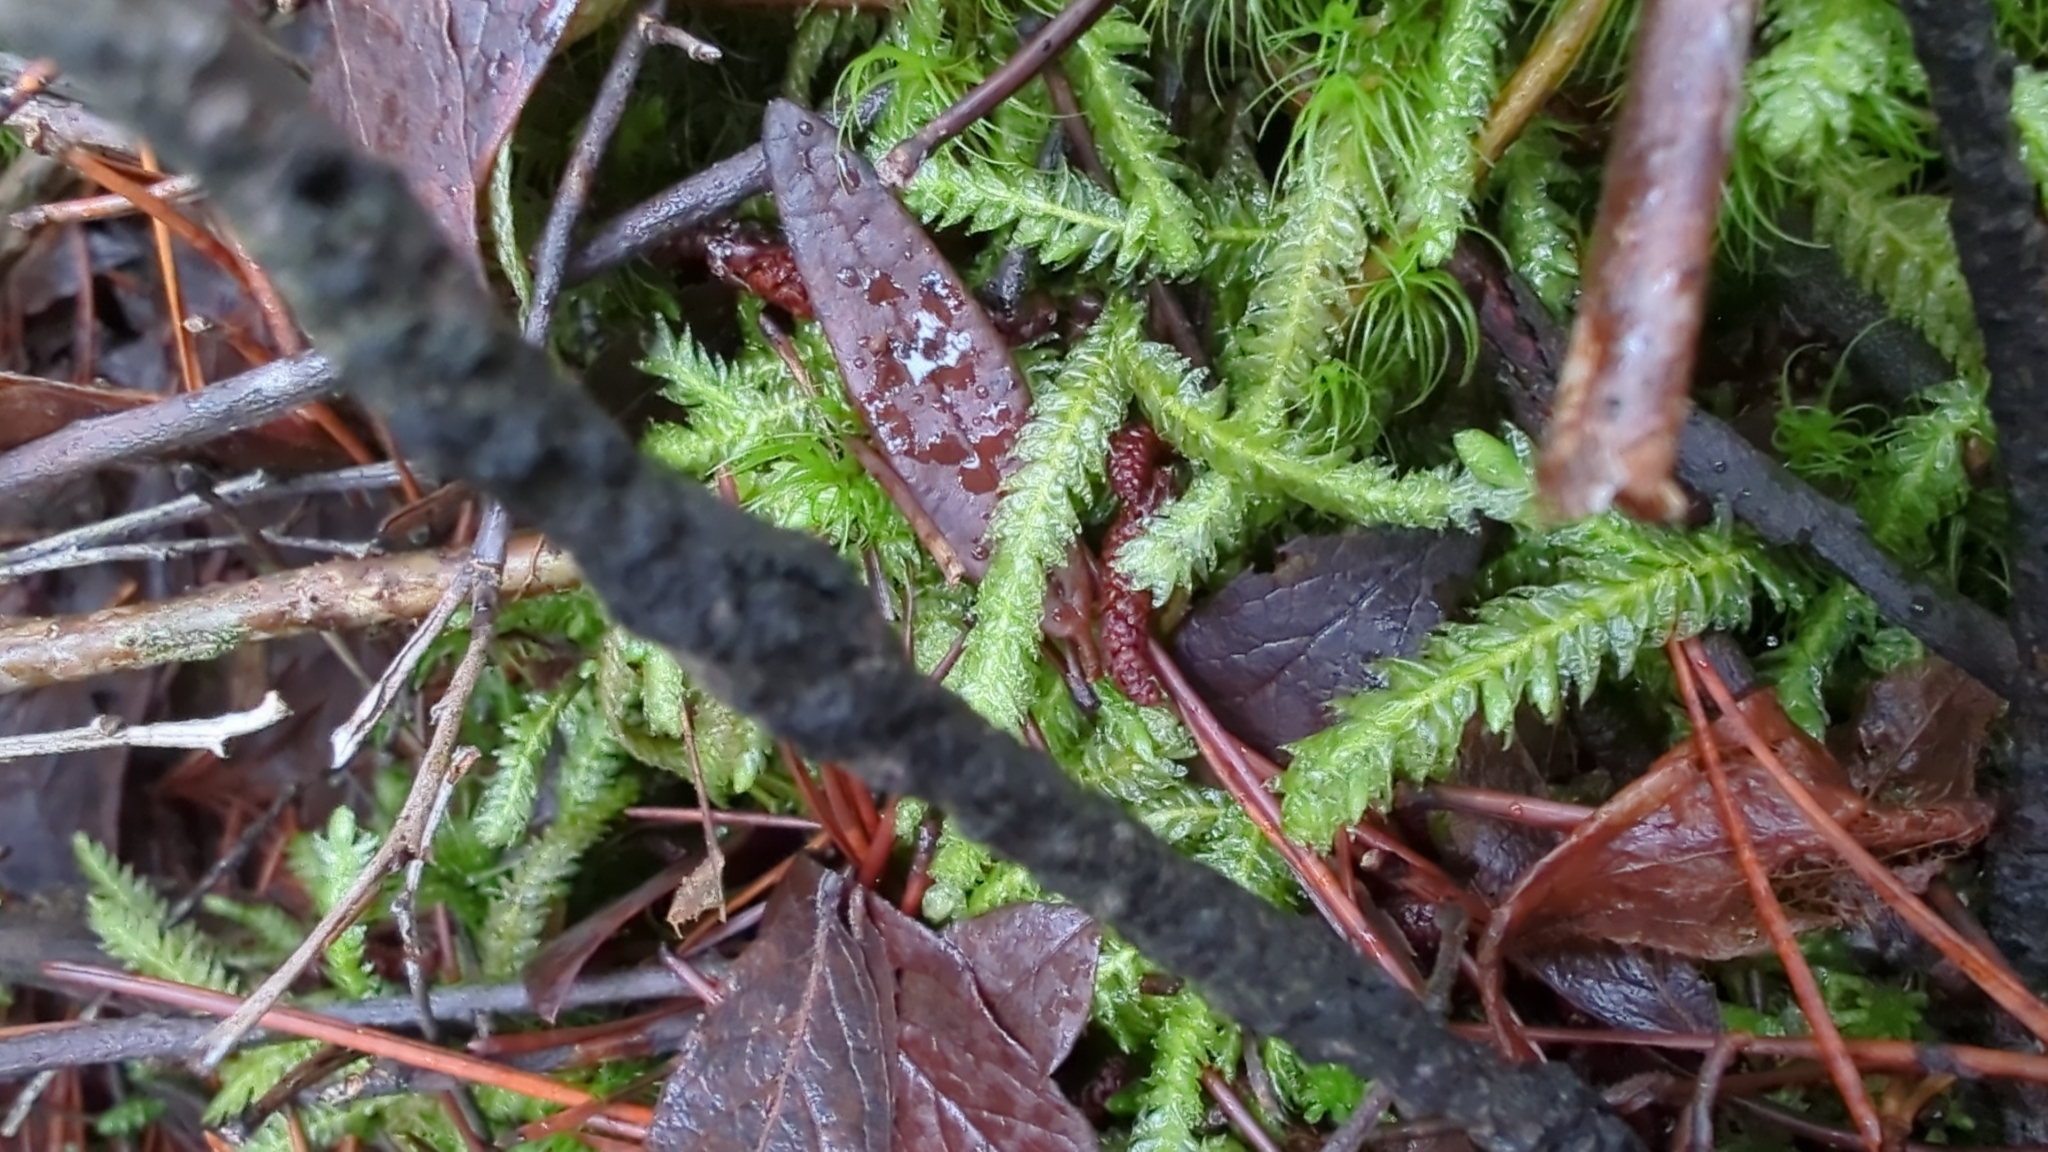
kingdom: Plantae
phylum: Bryophyta
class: Bryopsida
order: Hypnales
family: Plagiotheciaceae
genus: Plagiothecium
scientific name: Plagiothecium undulatum
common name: Waved silk-moss
